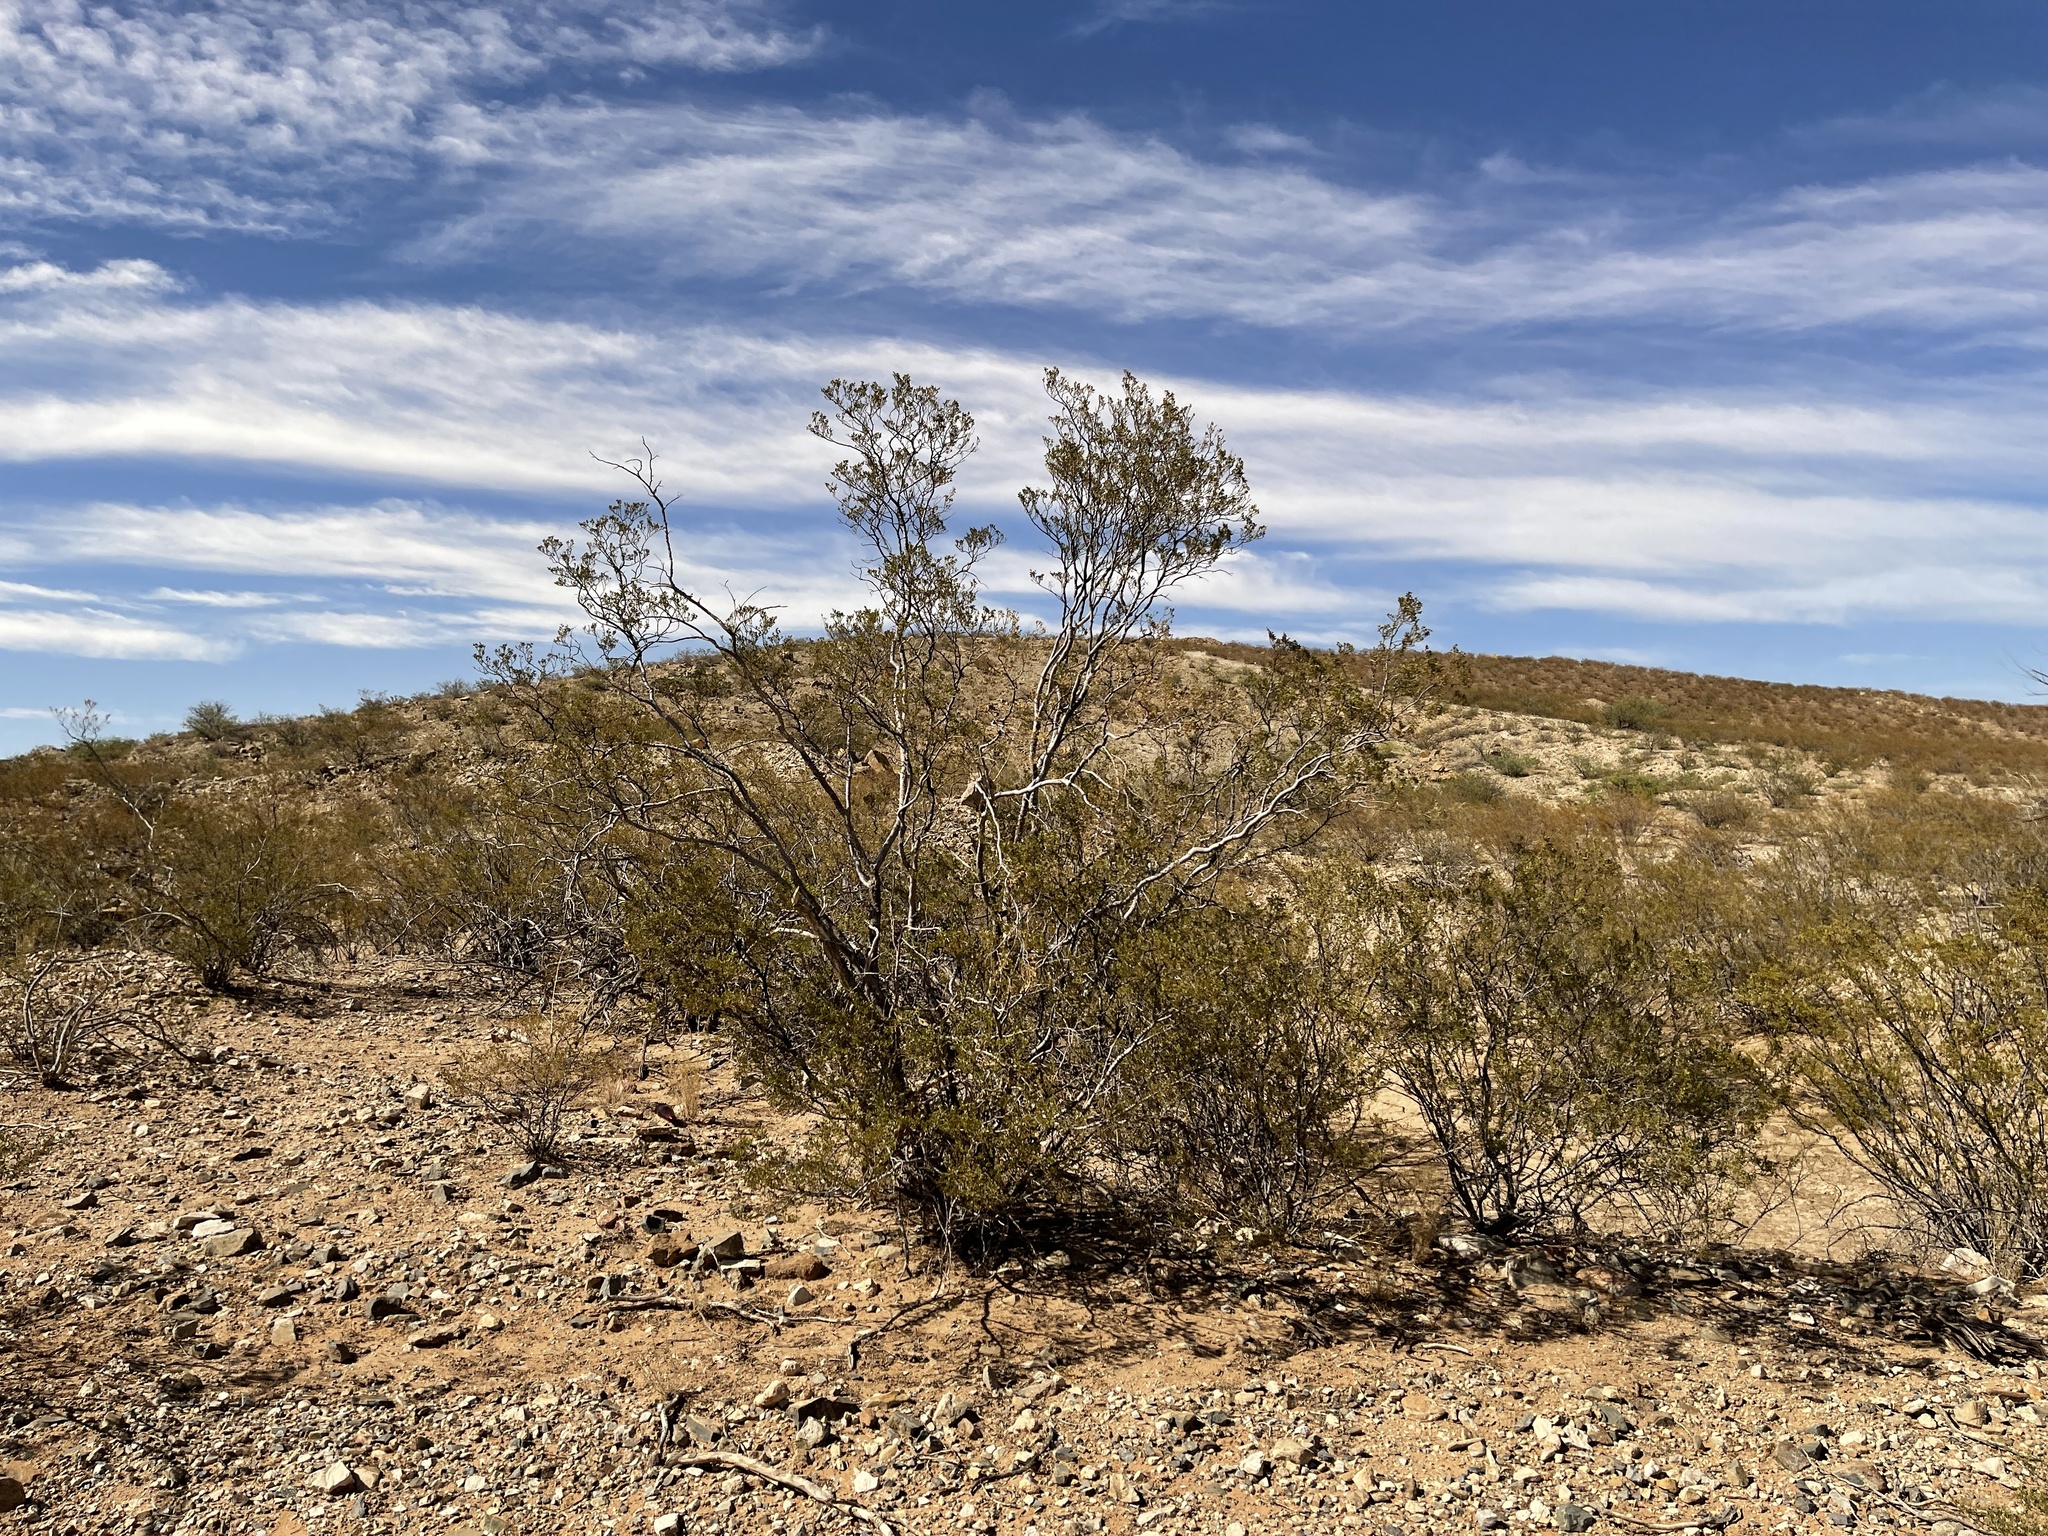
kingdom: Plantae
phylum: Tracheophyta
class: Magnoliopsida
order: Zygophyllales
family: Zygophyllaceae
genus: Larrea
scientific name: Larrea tridentata
